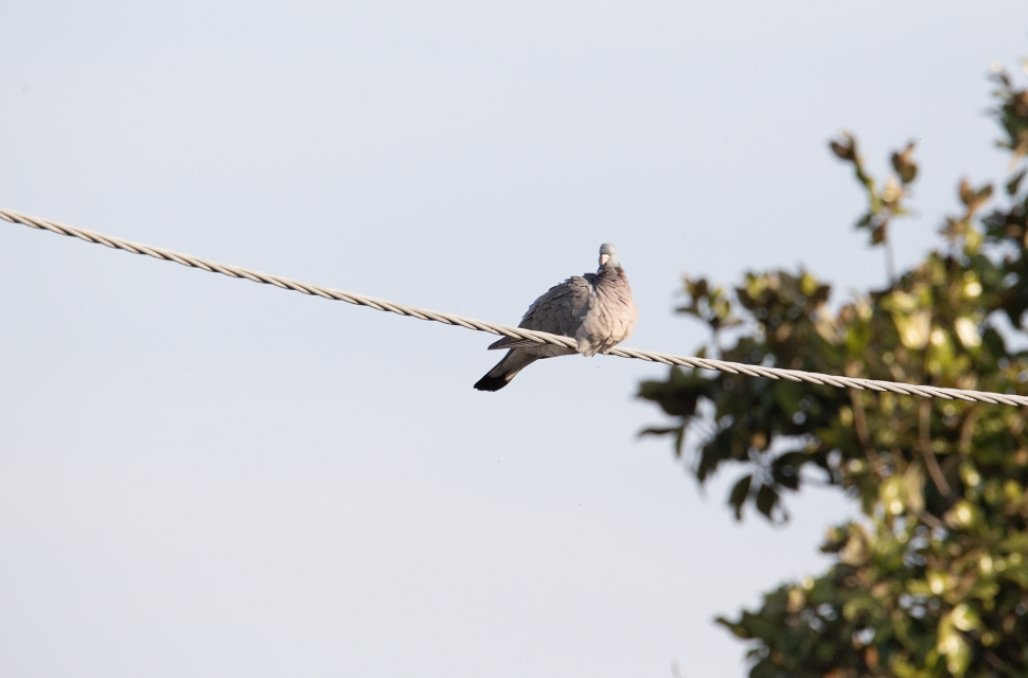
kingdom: Animalia
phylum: Chordata
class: Aves
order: Columbiformes
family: Columbidae
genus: Columba
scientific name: Columba palumbus
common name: Common wood pigeon
